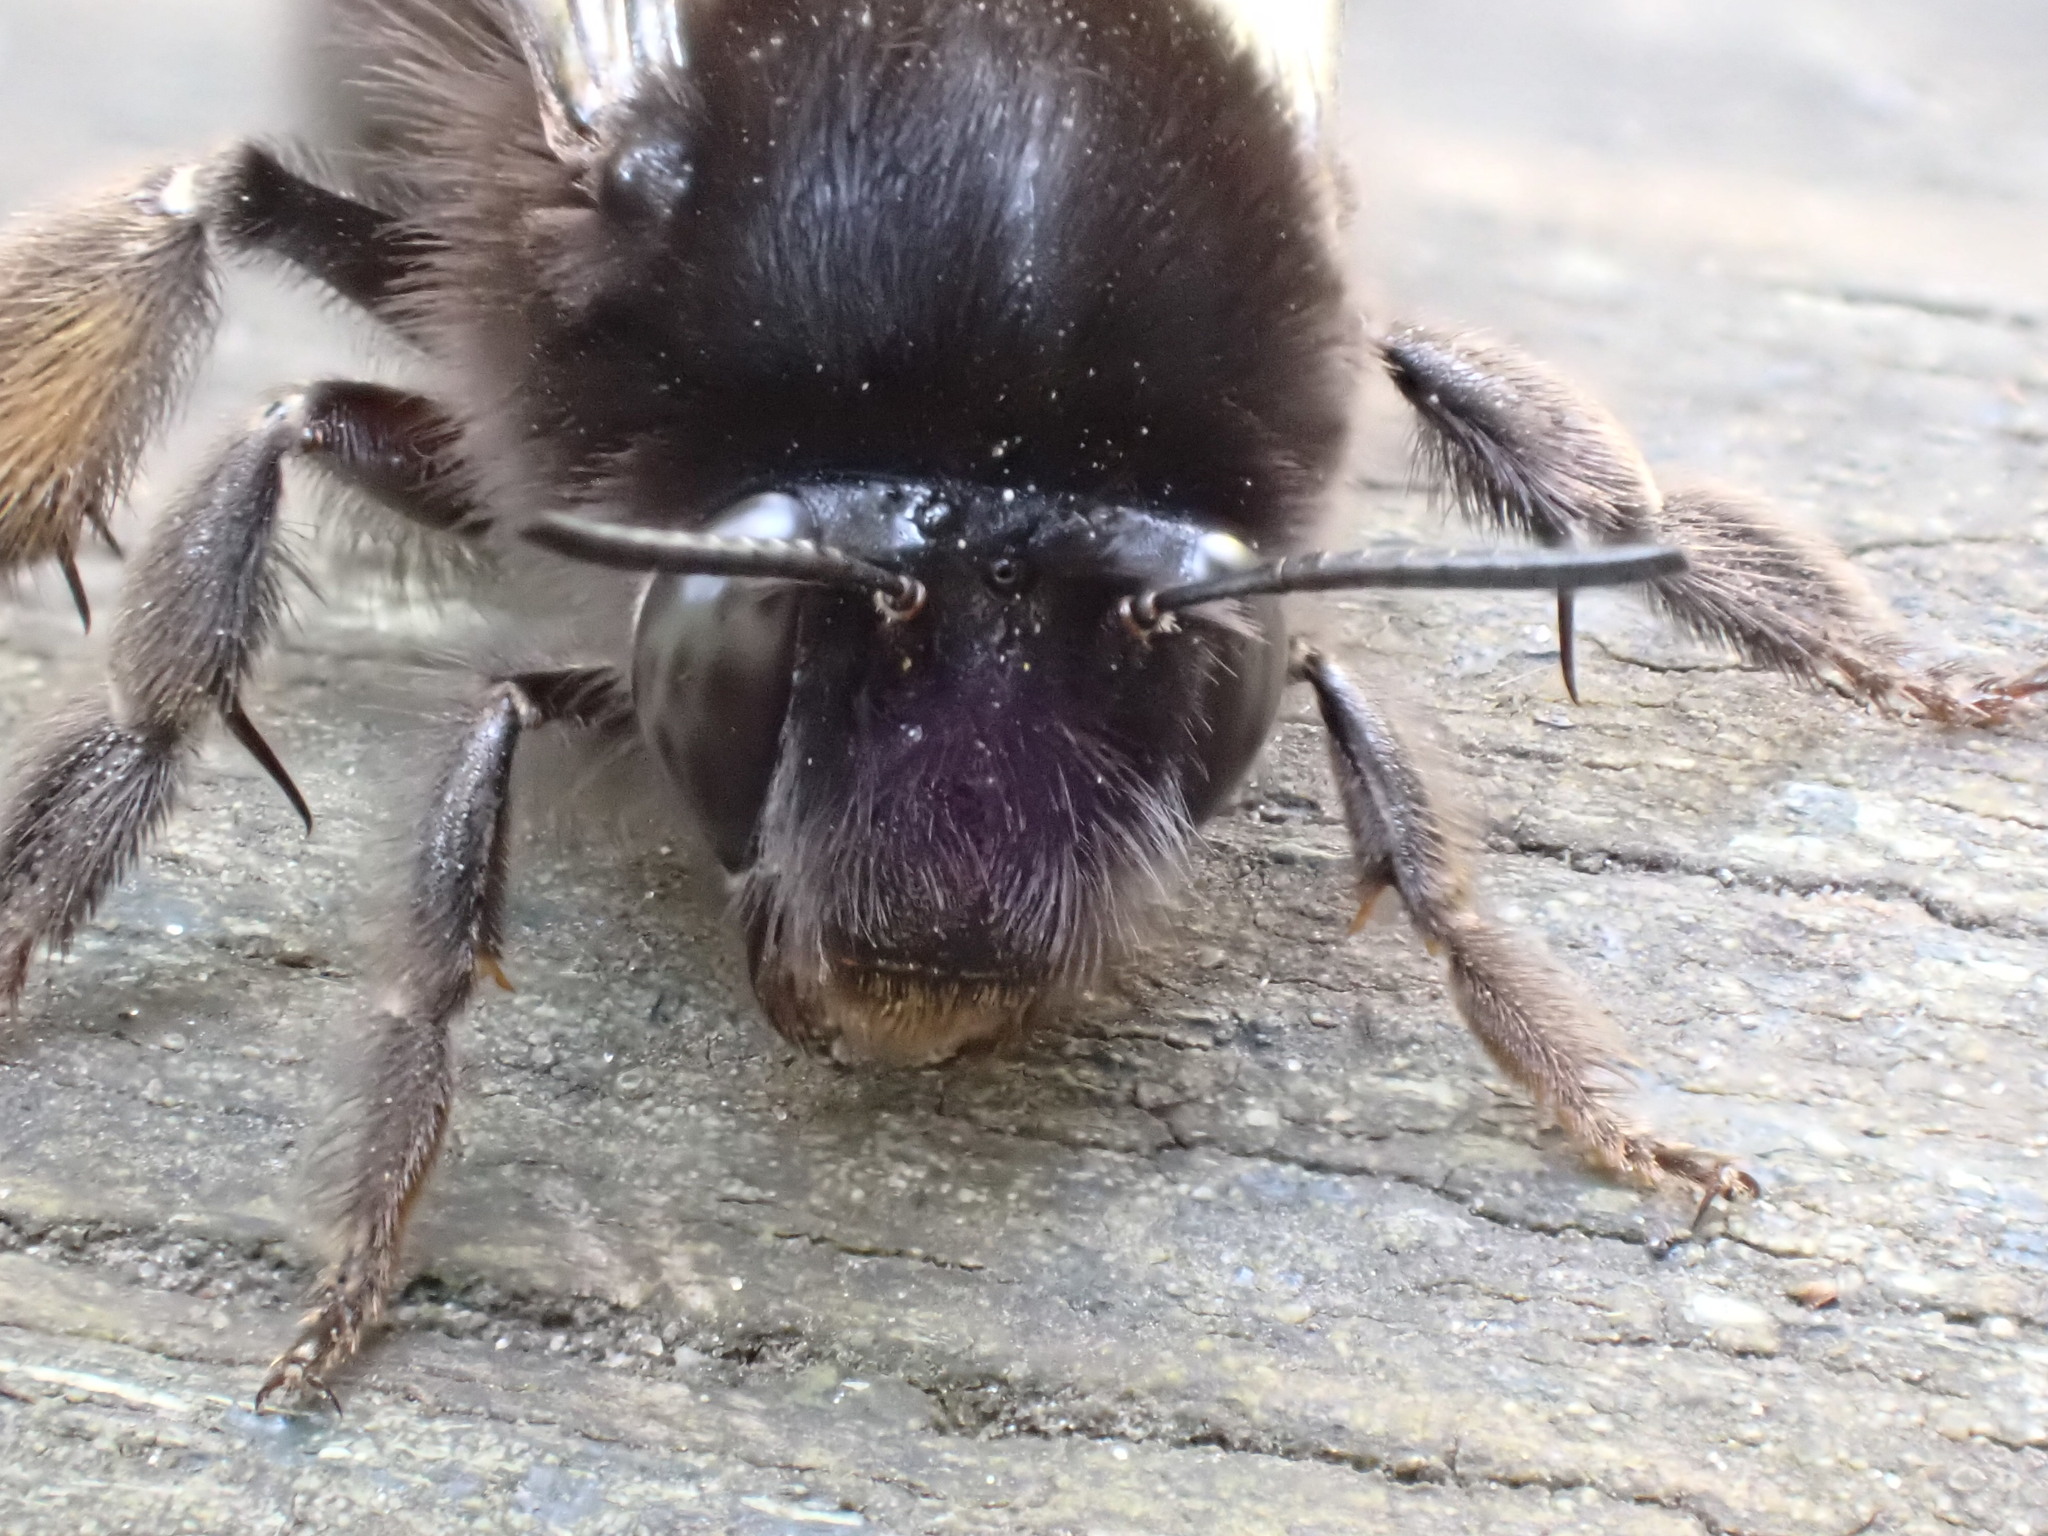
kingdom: Animalia
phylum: Arthropoda
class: Insecta
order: Hymenoptera
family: Apidae
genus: Anthophora
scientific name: Anthophora plumipes
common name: Hairy-footed flower bee
